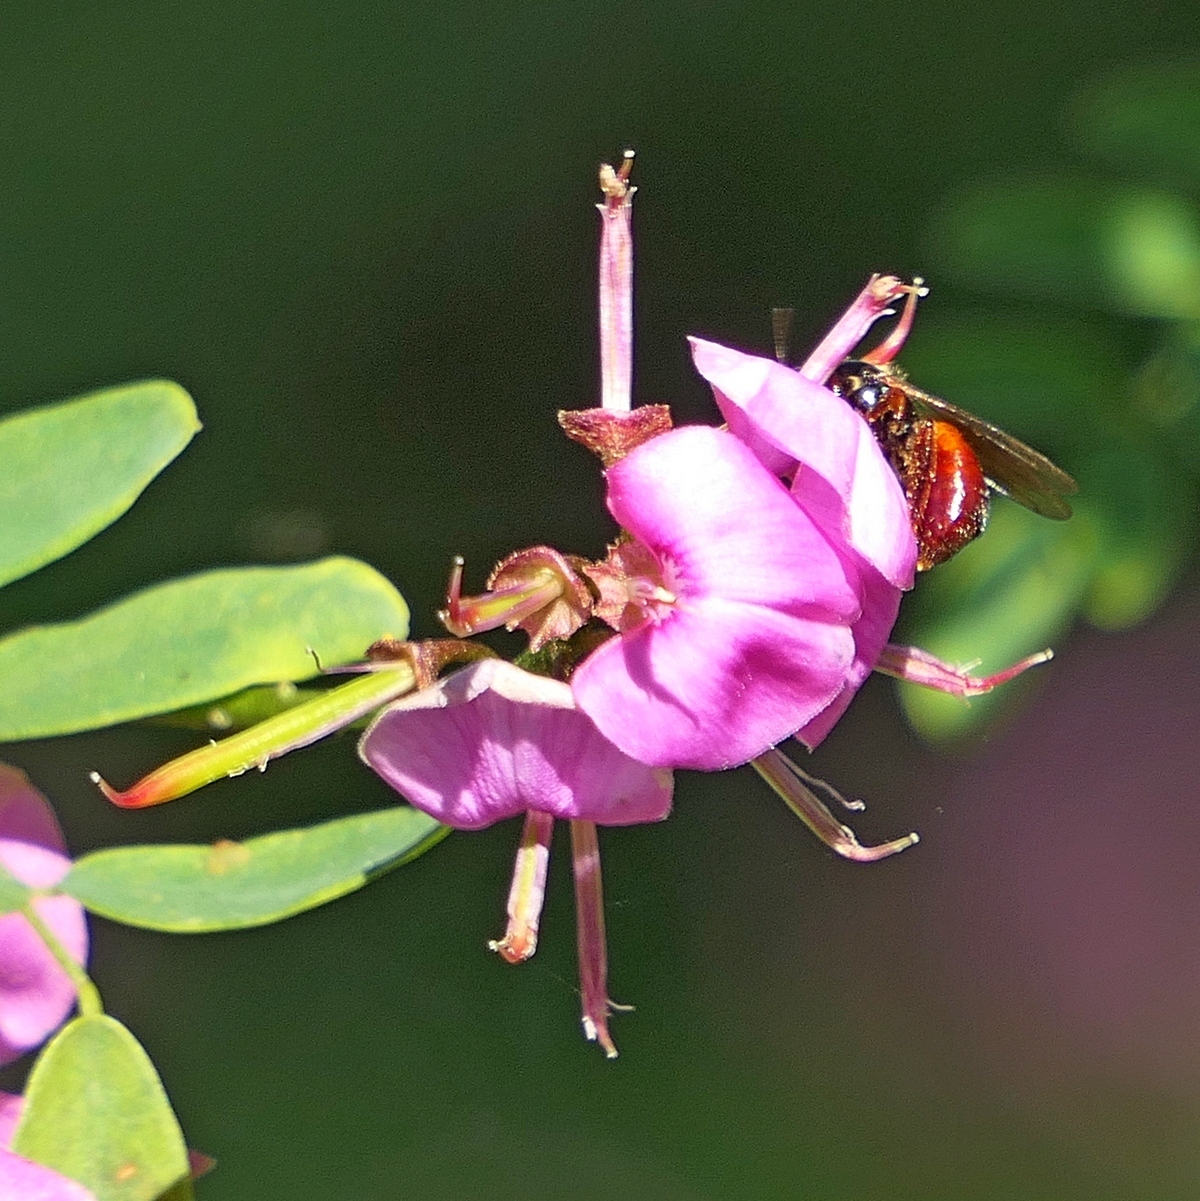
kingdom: Plantae
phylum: Tracheophyta
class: Magnoliopsida
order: Fabales
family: Fabaceae
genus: Indigofera
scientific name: Indigofera australis
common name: Australian indigo
